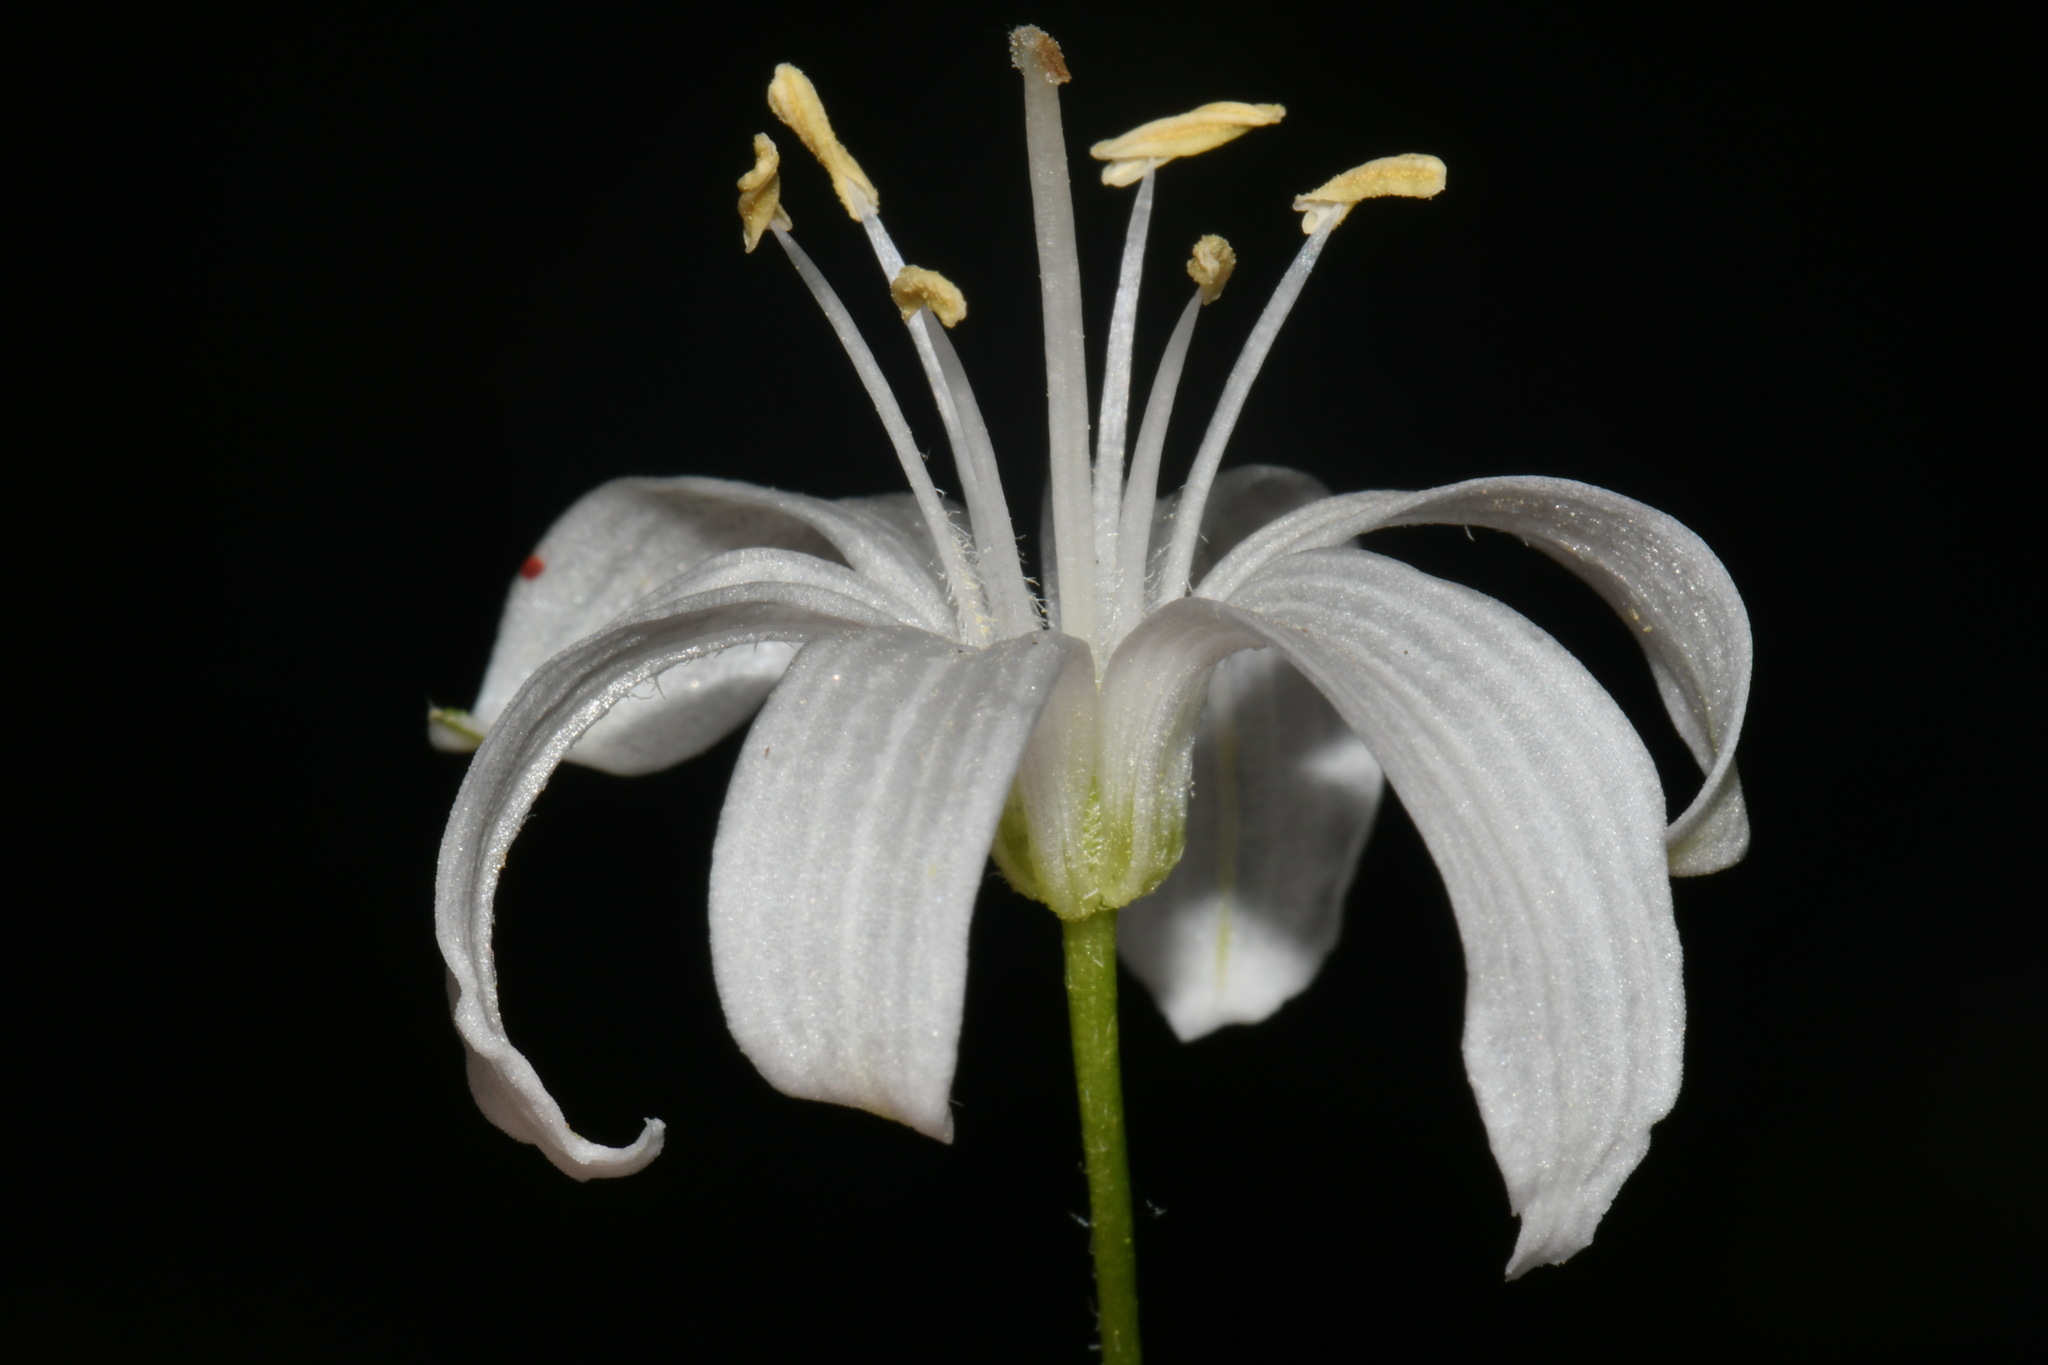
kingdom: Plantae
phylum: Tracheophyta
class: Liliopsida
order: Liliales
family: Liliaceae
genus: Clintonia
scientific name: Clintonia uniflora
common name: Queen's cup
